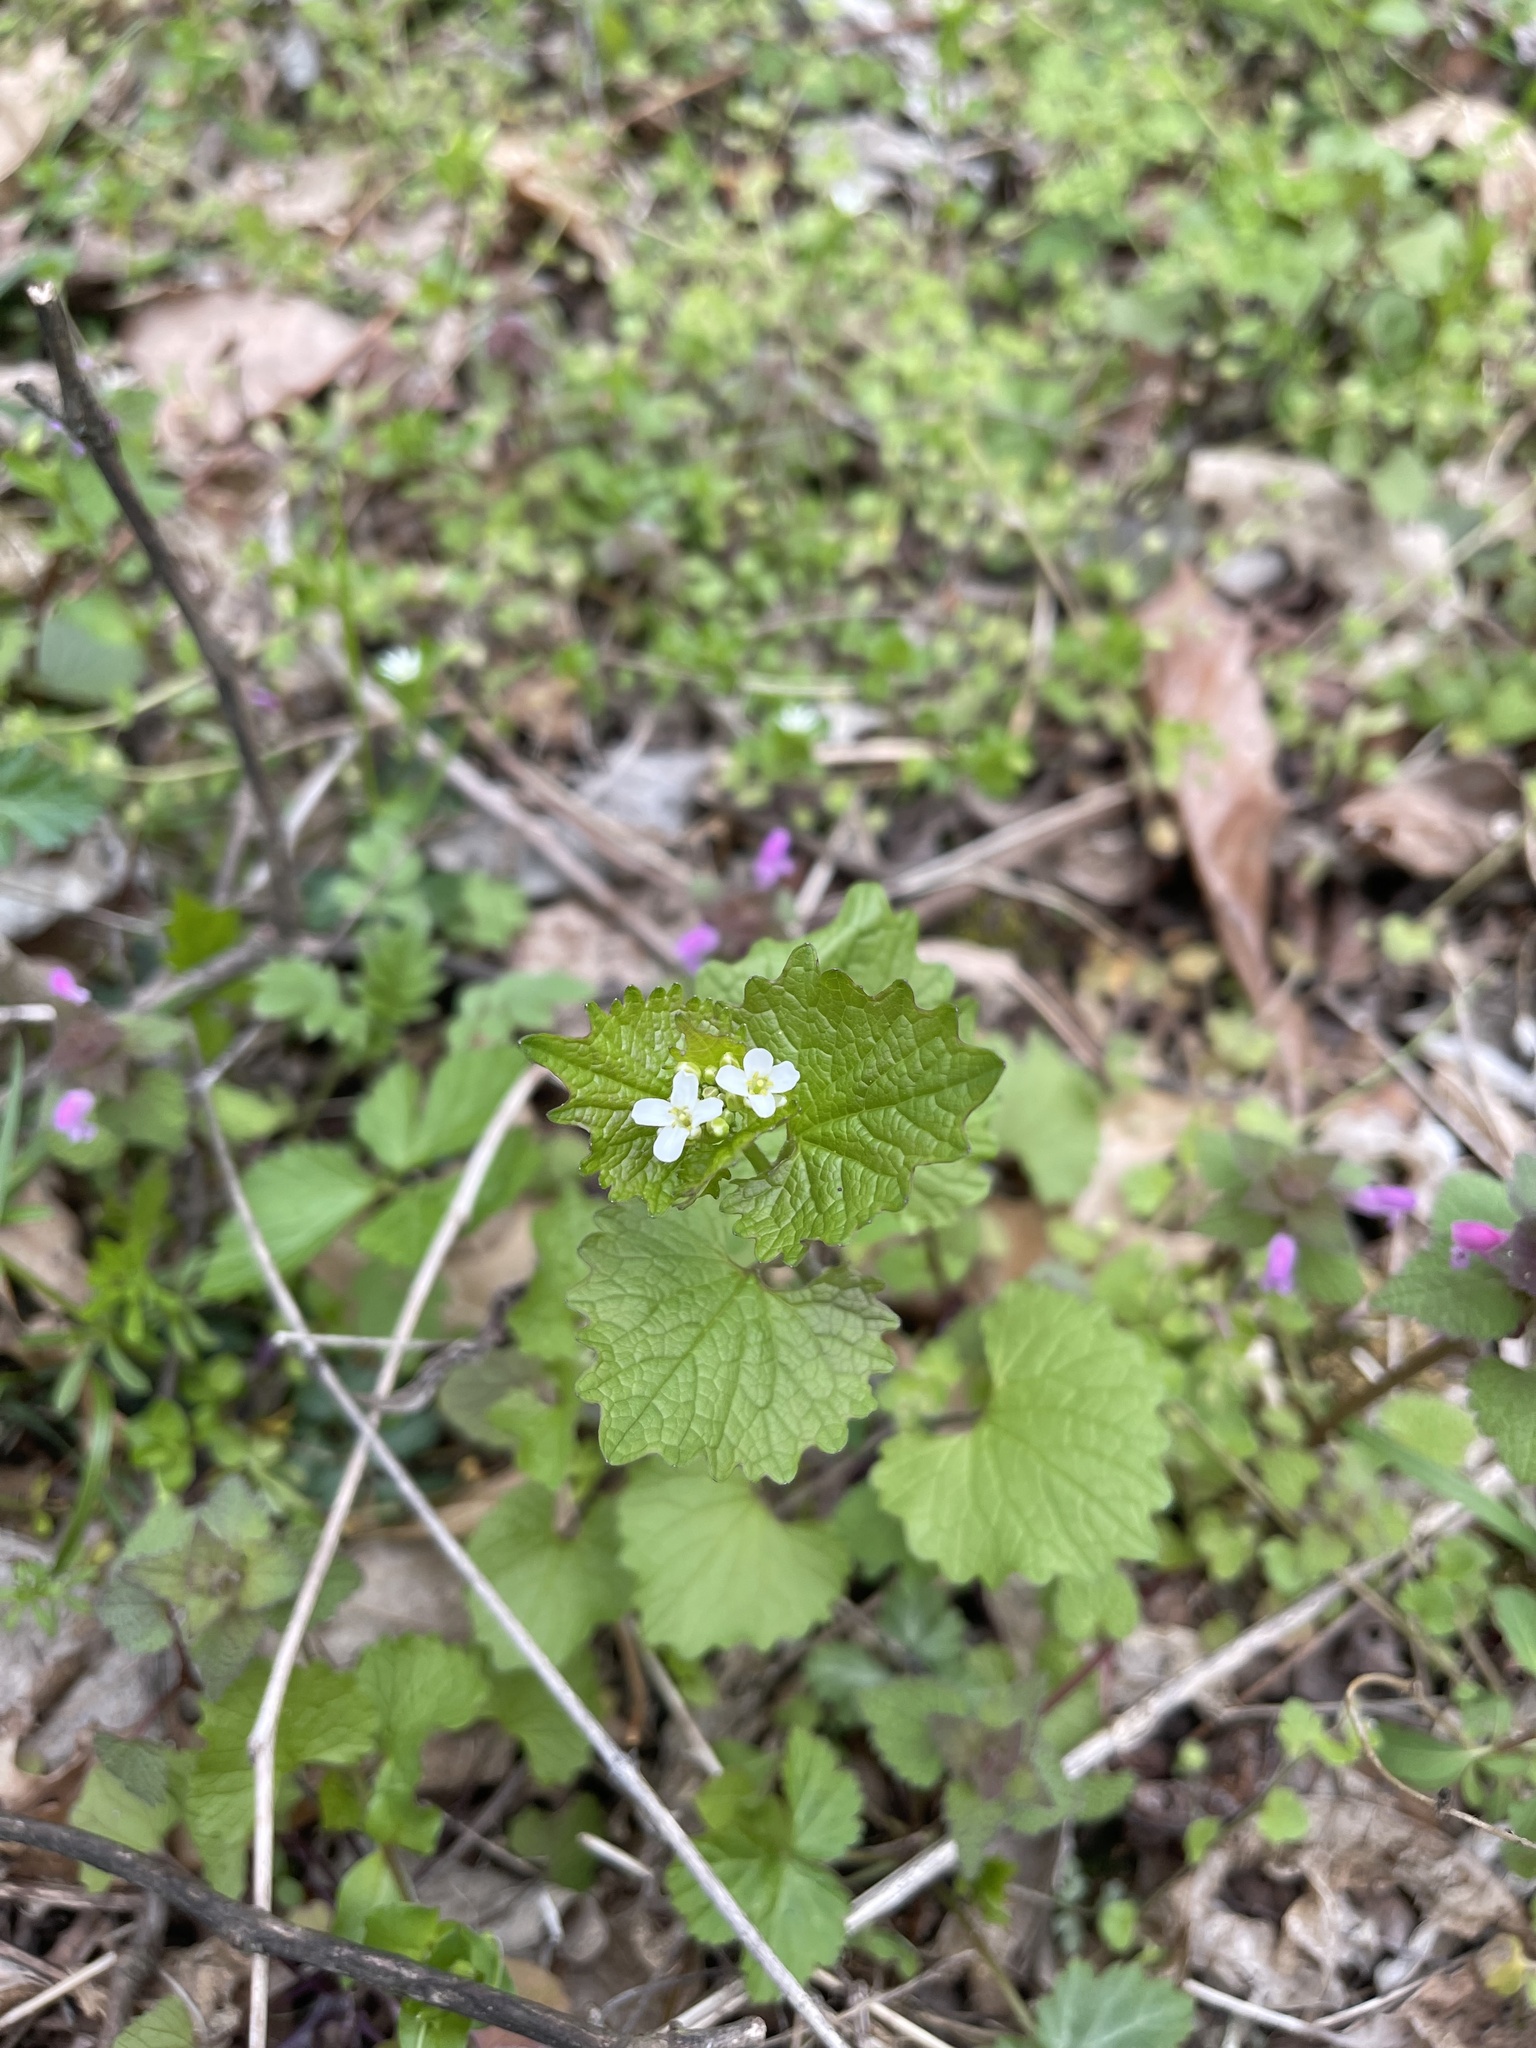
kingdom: Plantae
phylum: Tracheophyta
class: Magnoliopsida
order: Brassicales
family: Brassicaceae
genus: Alliaria
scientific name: Alliaria petiolata
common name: Garlic mustard
